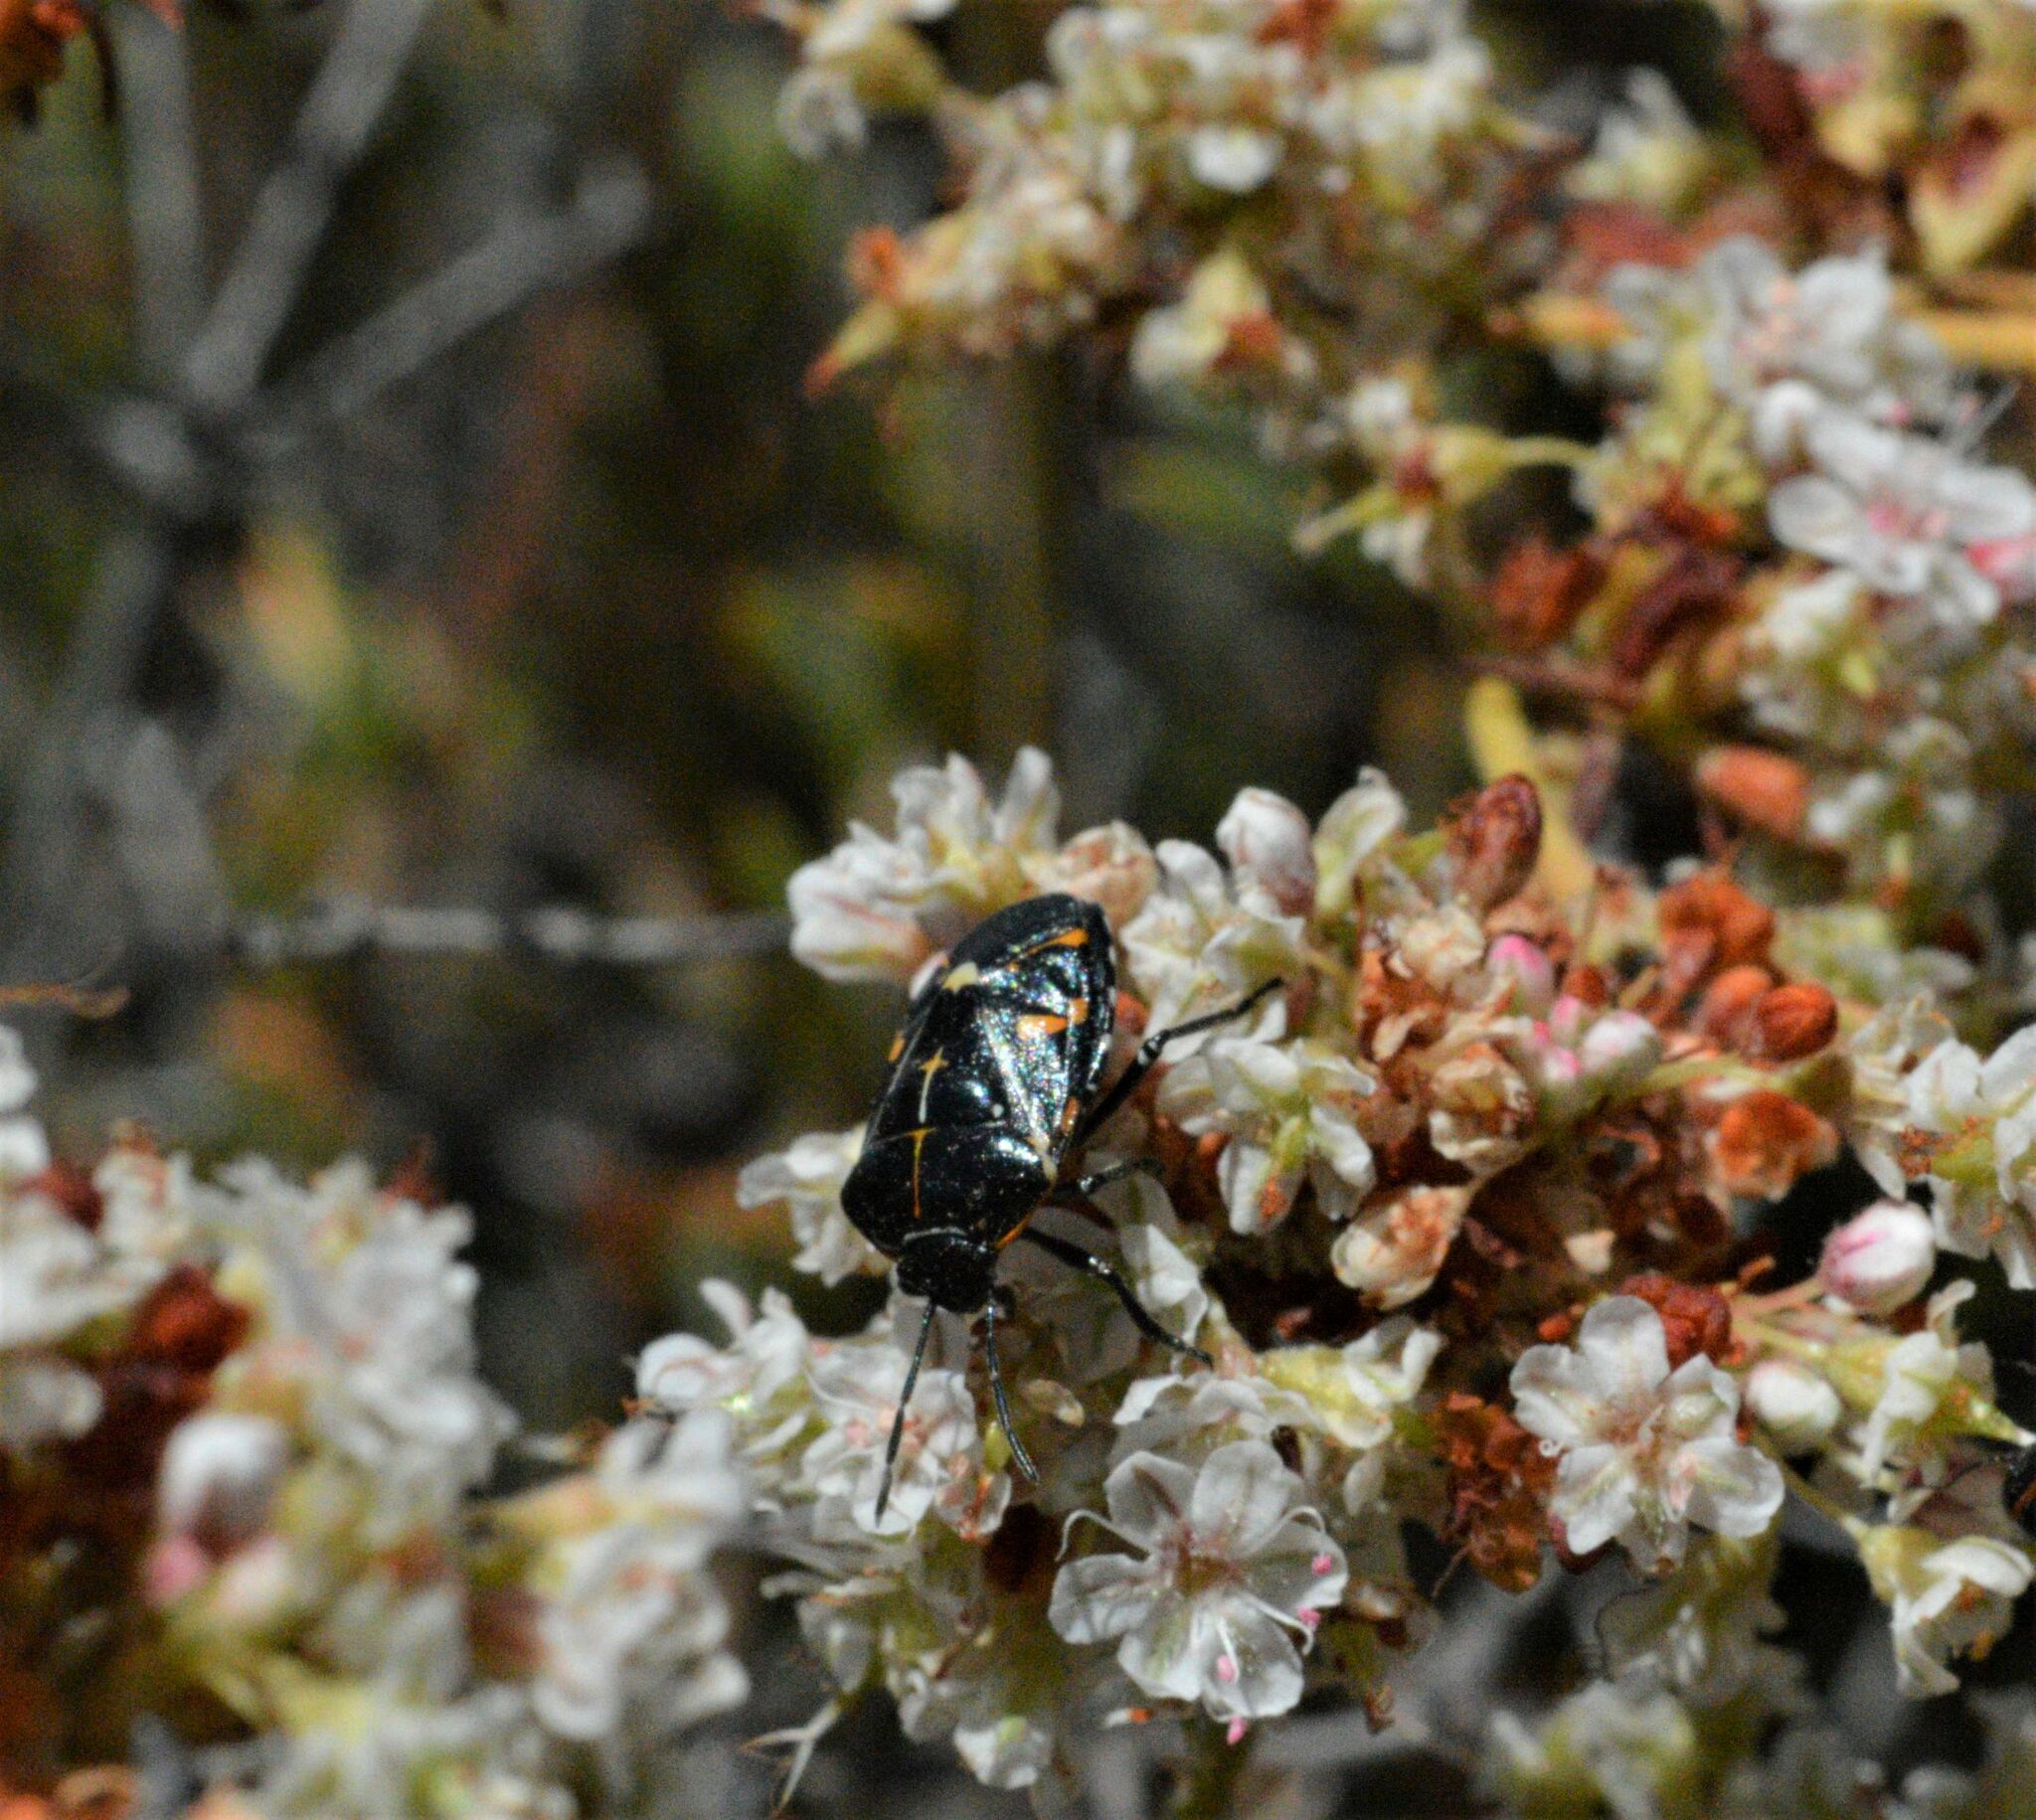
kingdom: Animalia
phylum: Arthropoda
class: Insecta
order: Hemiptera
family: Pentatomidae
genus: Murgantia
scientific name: Murgantia histrionica
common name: Harlequin bug
